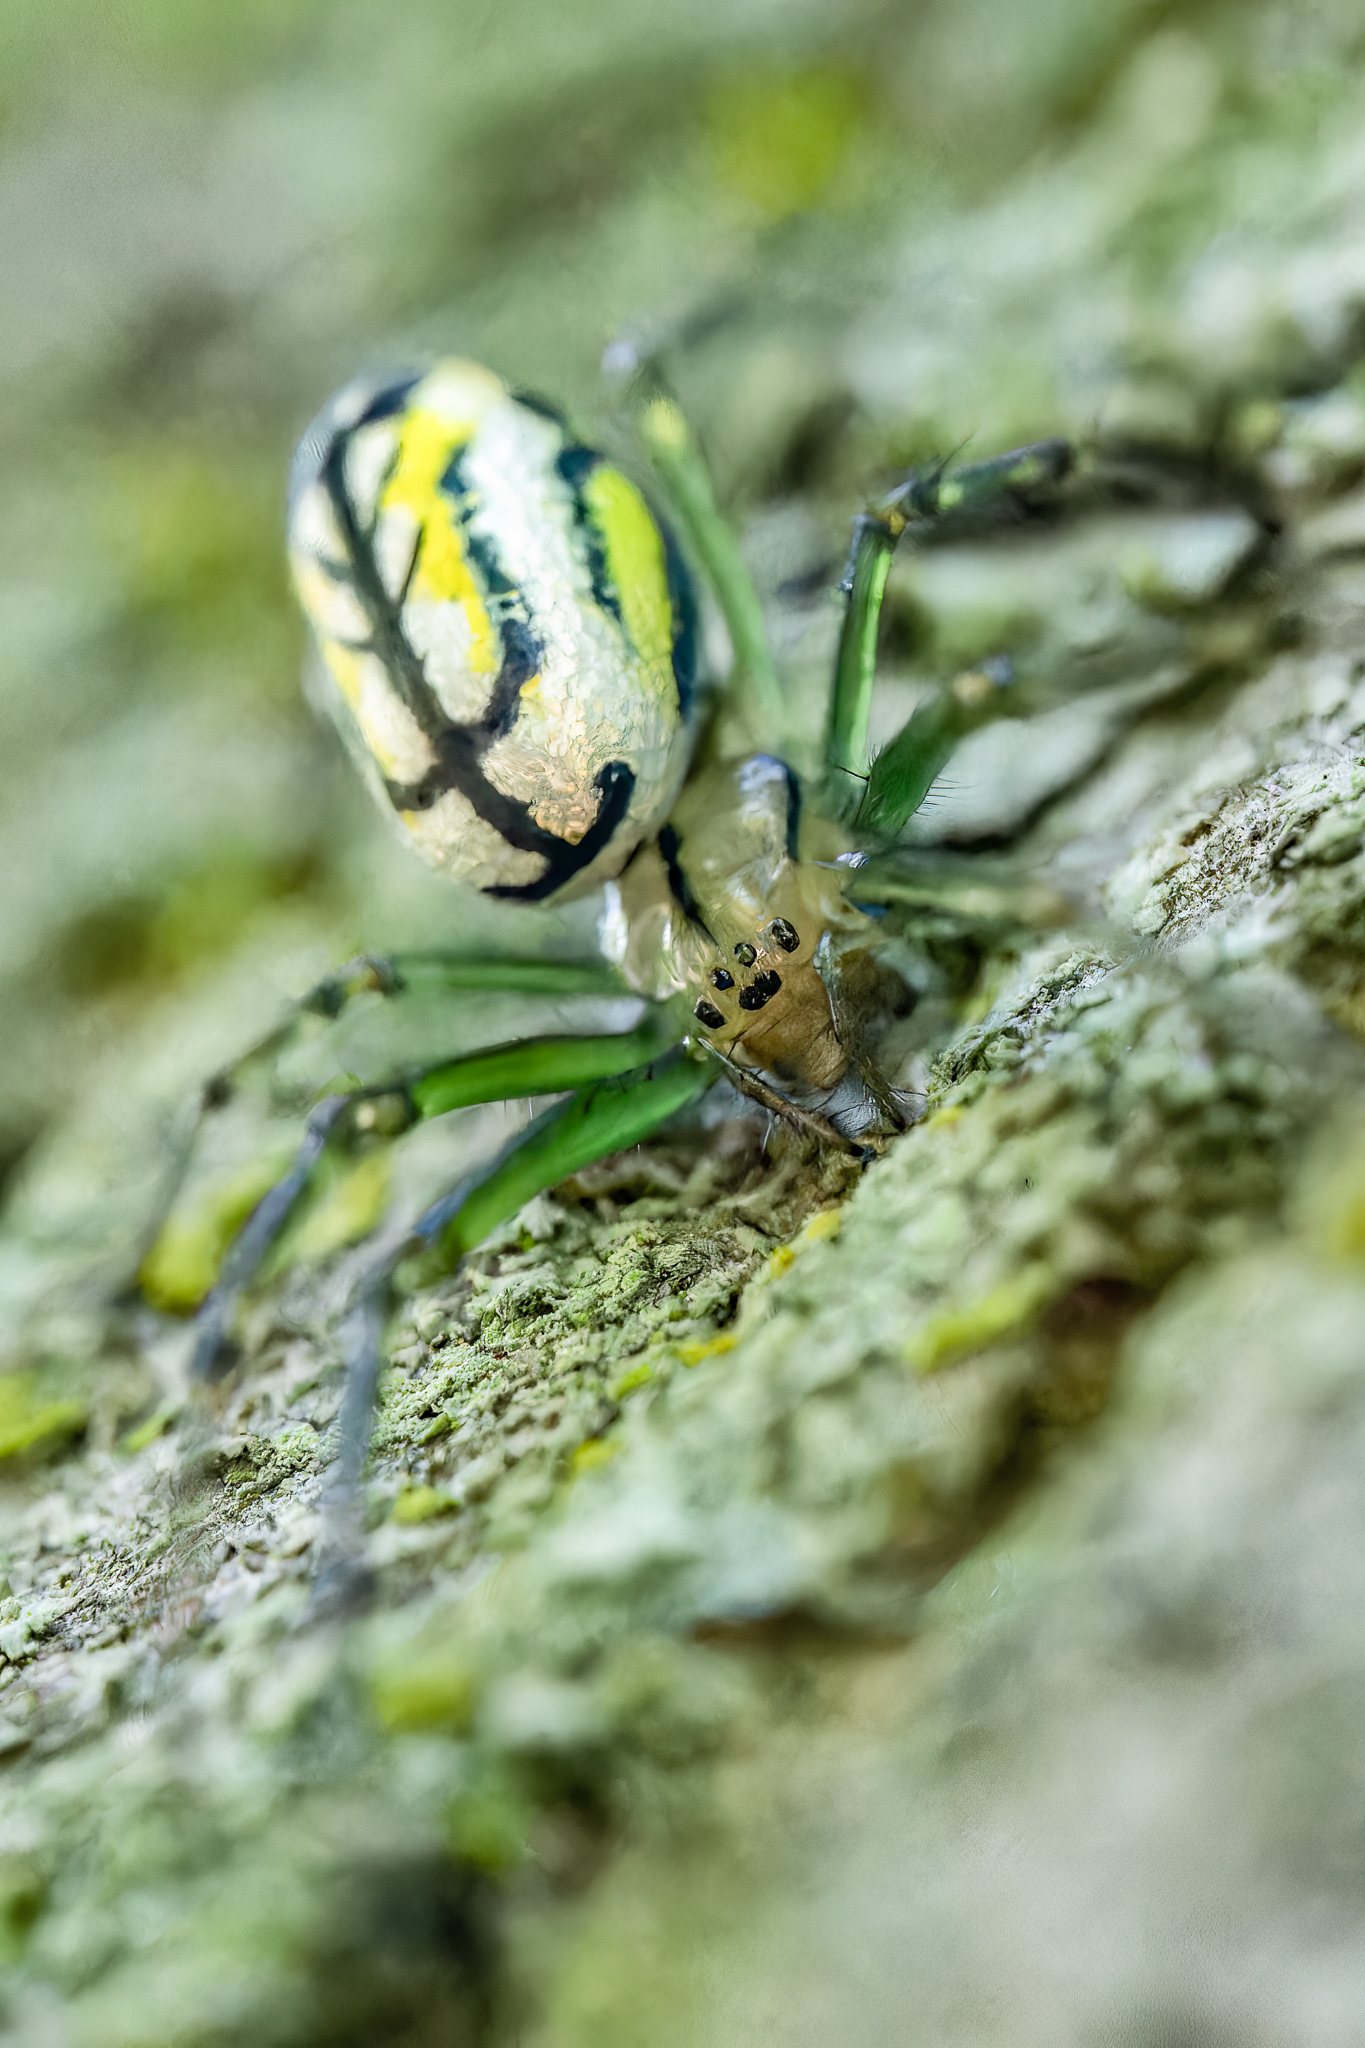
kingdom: Animalia
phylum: Arthropoda
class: Arachnida
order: Araneae
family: Tetragnathidae
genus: Leucauge
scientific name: Leucauge venusta
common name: Longjawed orb weavers
